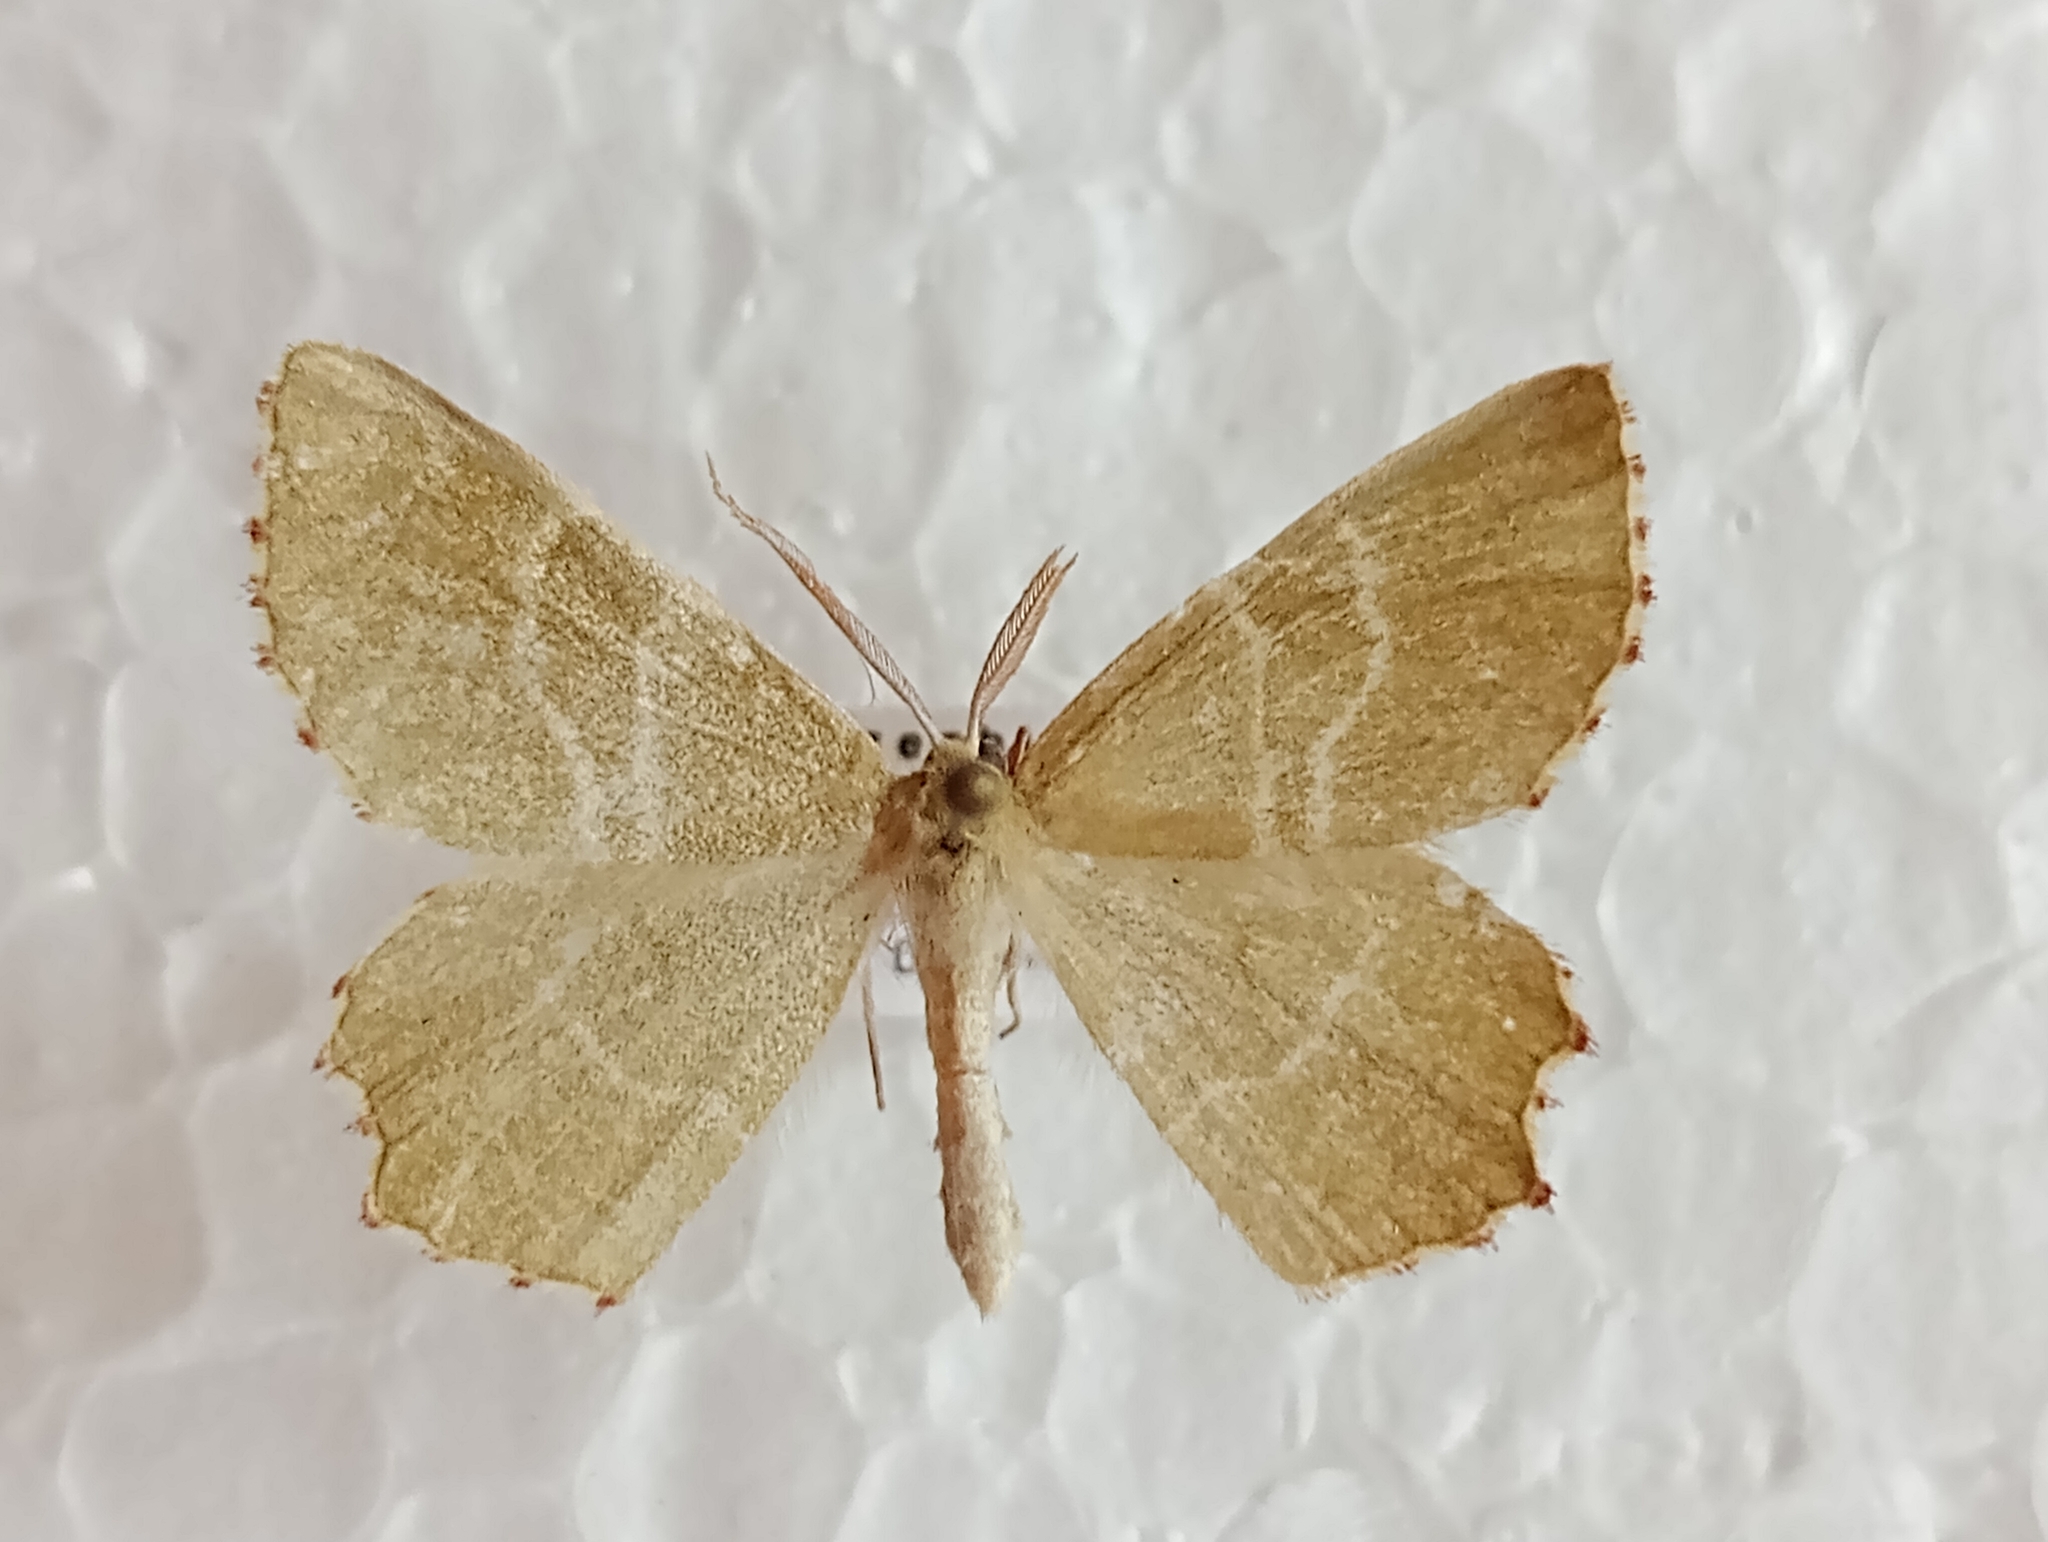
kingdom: Animalia
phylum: Arthropoda
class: Insecta
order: Lepidoptera
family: Geometridae
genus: Thalera
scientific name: Thalera fimbrialis
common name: Sussex emerald
